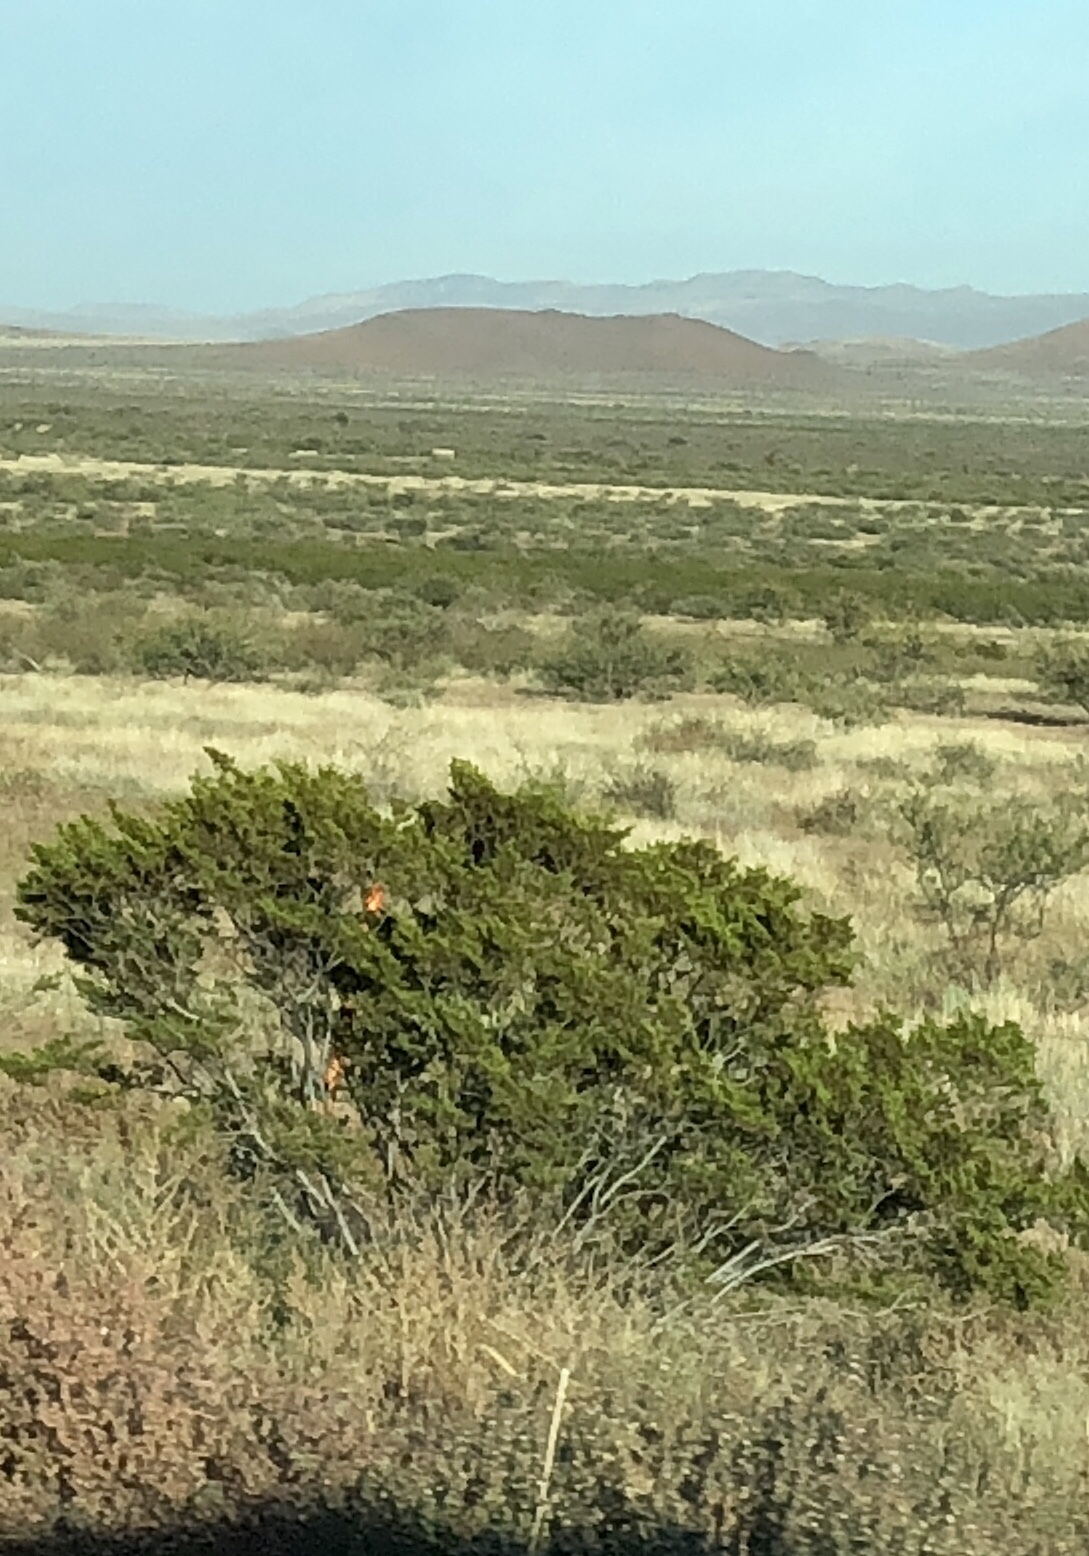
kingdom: Plantae
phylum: Tracheophyta
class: Magnoliopsida
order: Zygophyllales
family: Zygophyllaceae
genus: Larrea
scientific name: Larrea tridentata
